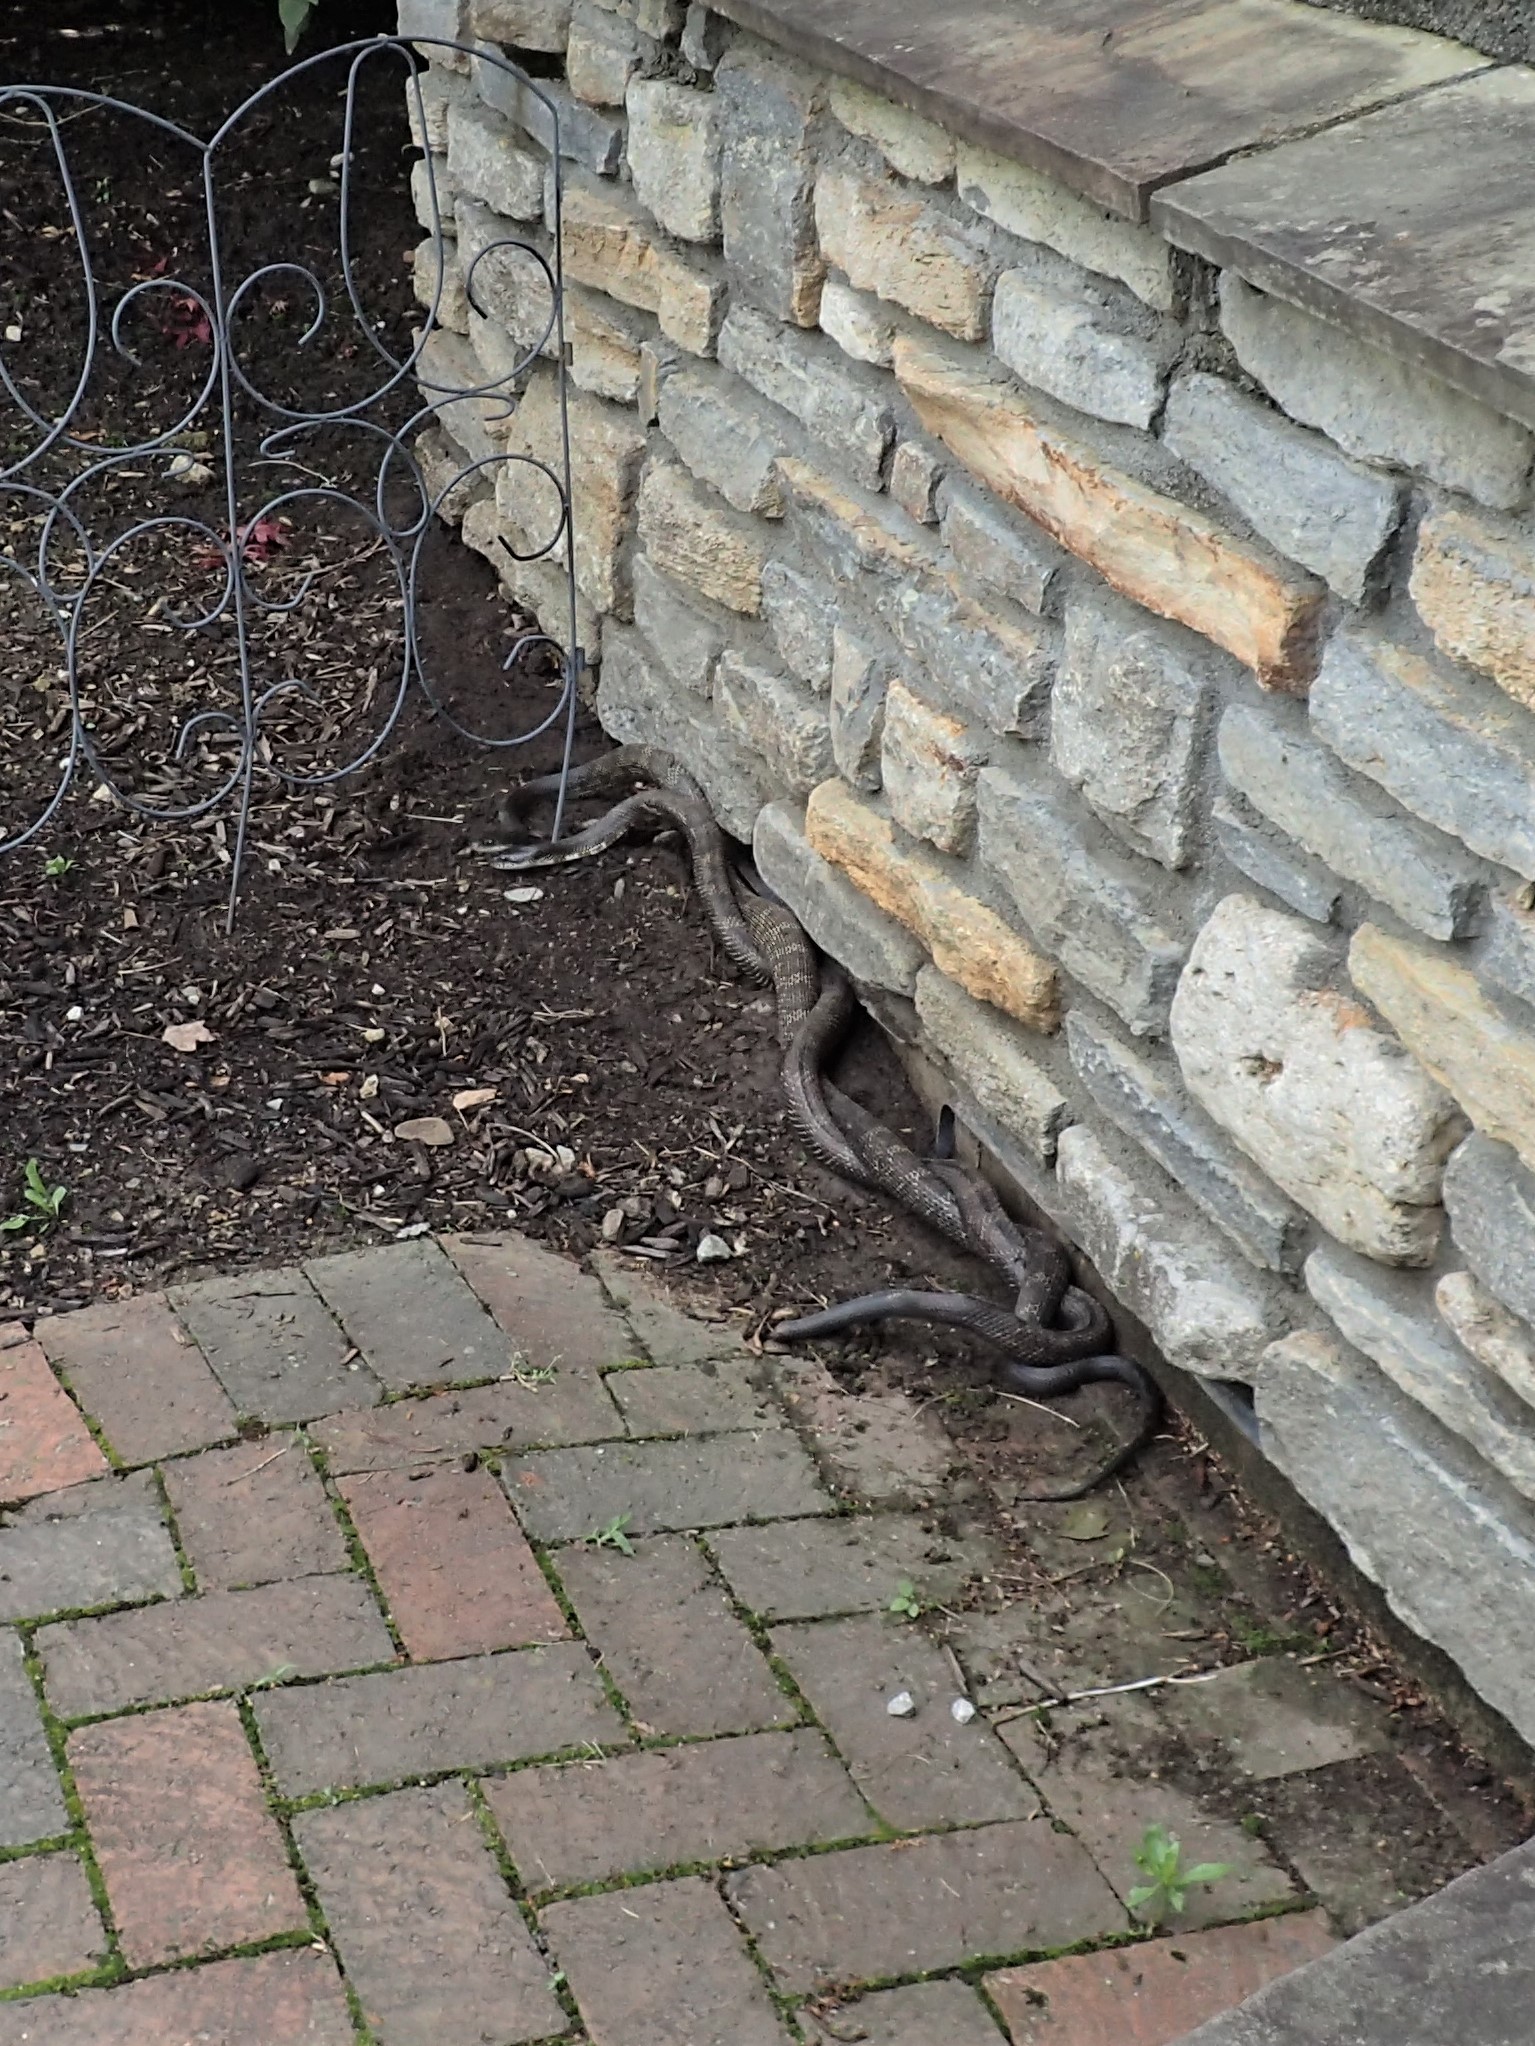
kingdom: Animalia
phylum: Chordata
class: Squamata
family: Colubridae
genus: Pantherophis
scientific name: Pantherophis spiloides
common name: Gray rat snake
